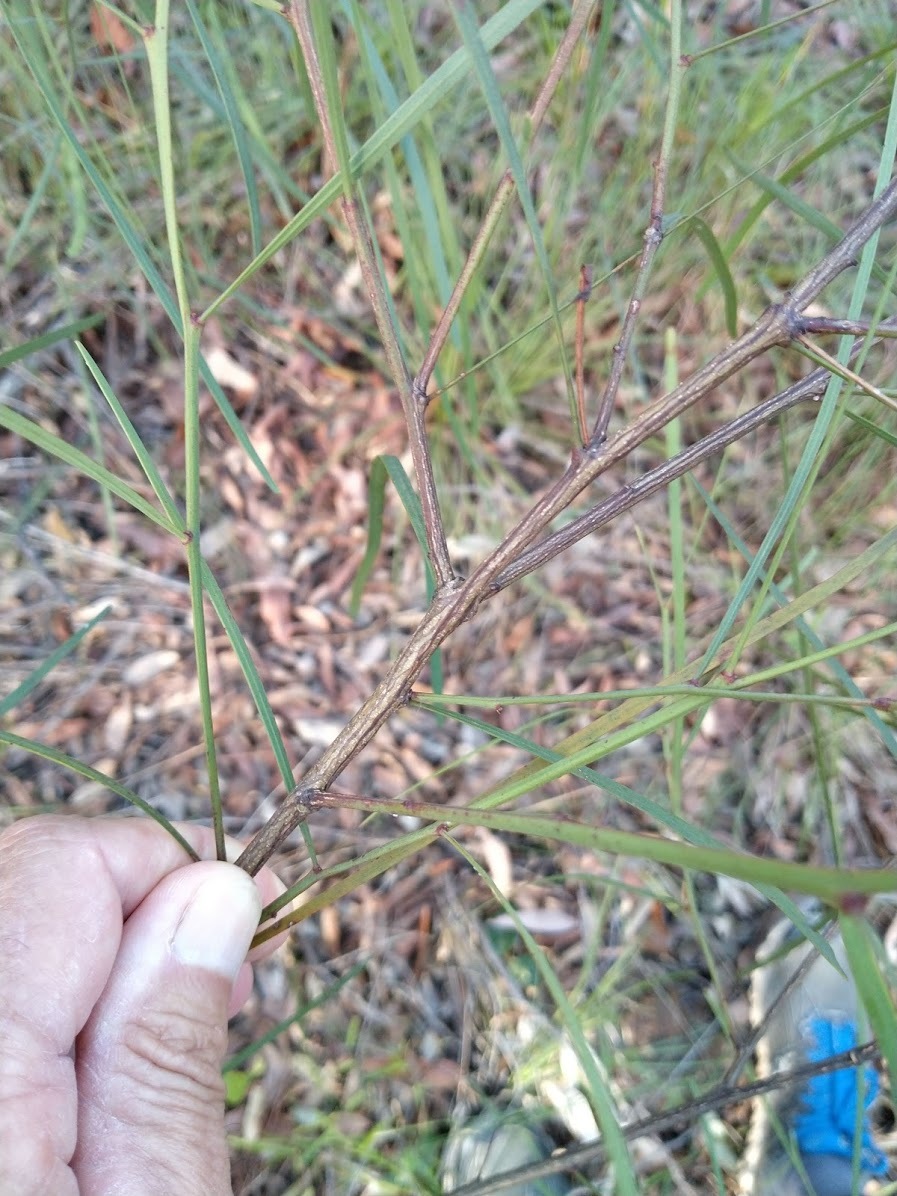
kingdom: Plantae
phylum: Tracheophyta
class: Magnoliopsida
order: Fabales
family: Fabaceae
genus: Daviesia
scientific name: Daviesia wyattiana
